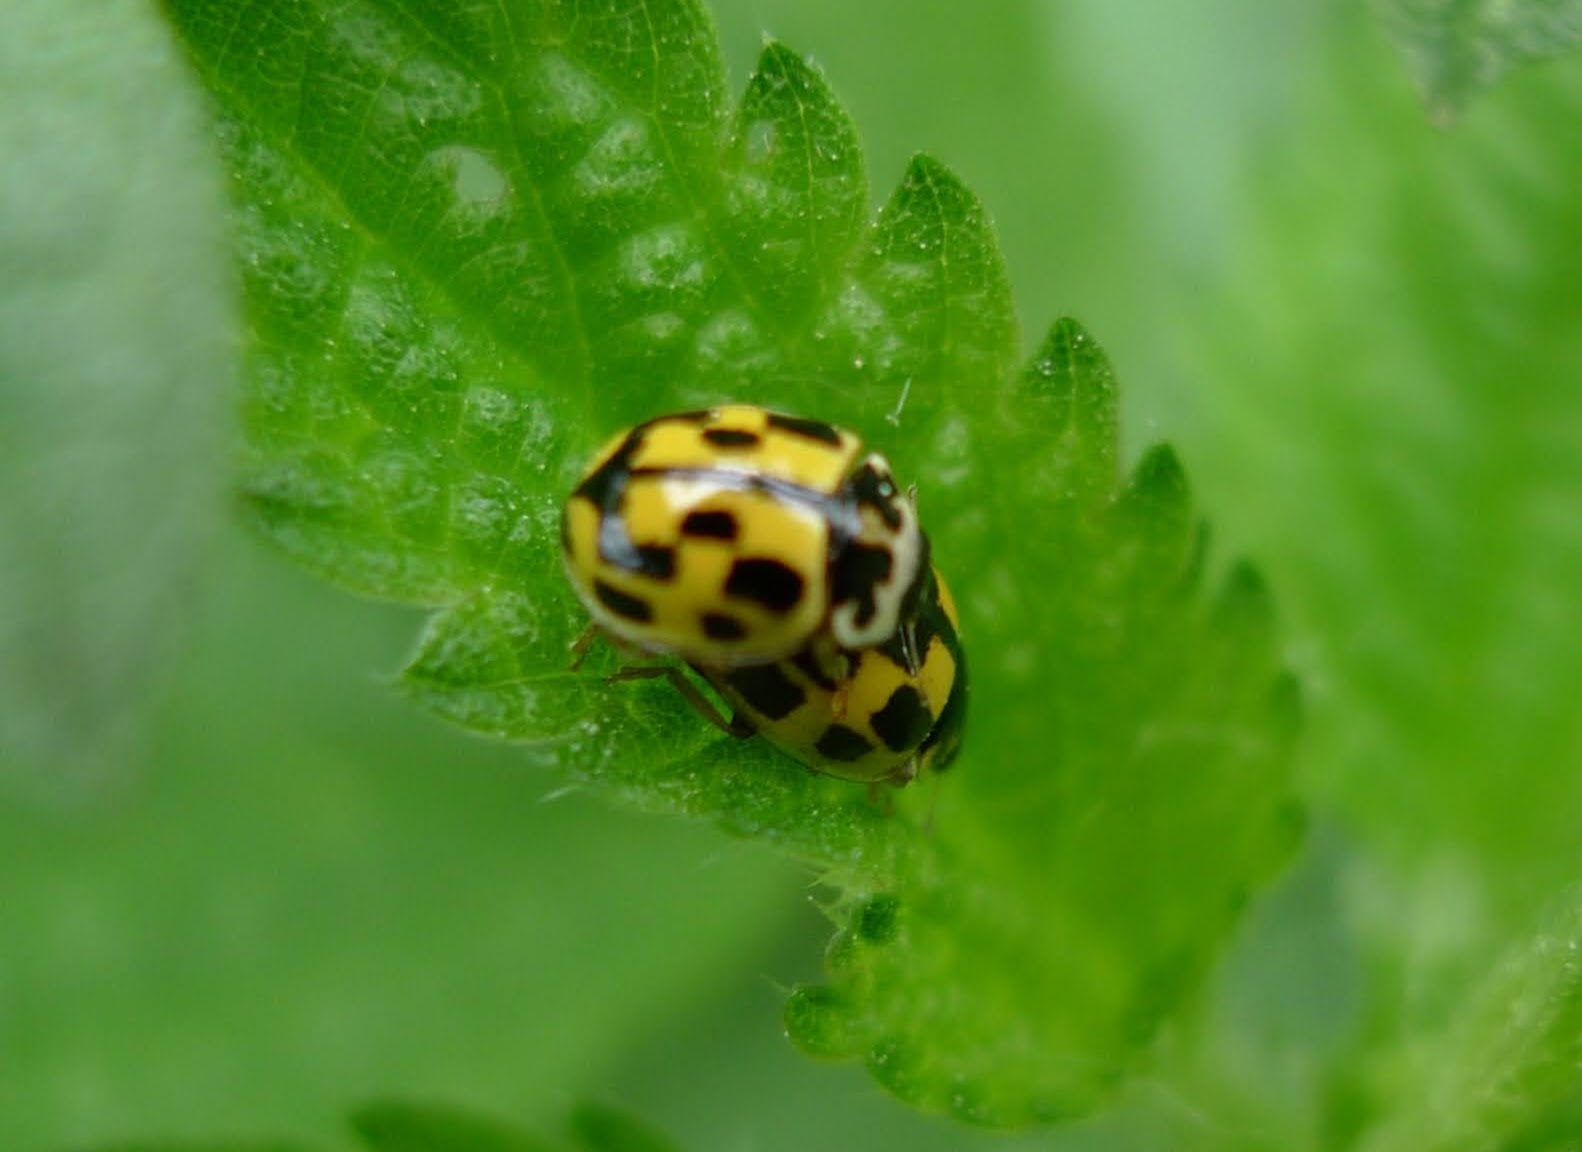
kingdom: Animalia
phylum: Arthropoda
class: Insecta
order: Coleoptera
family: Coccinellidae
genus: Propylaea
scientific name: Propylaea quatuordecimpunctata
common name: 14-spotted ladybird beetle
